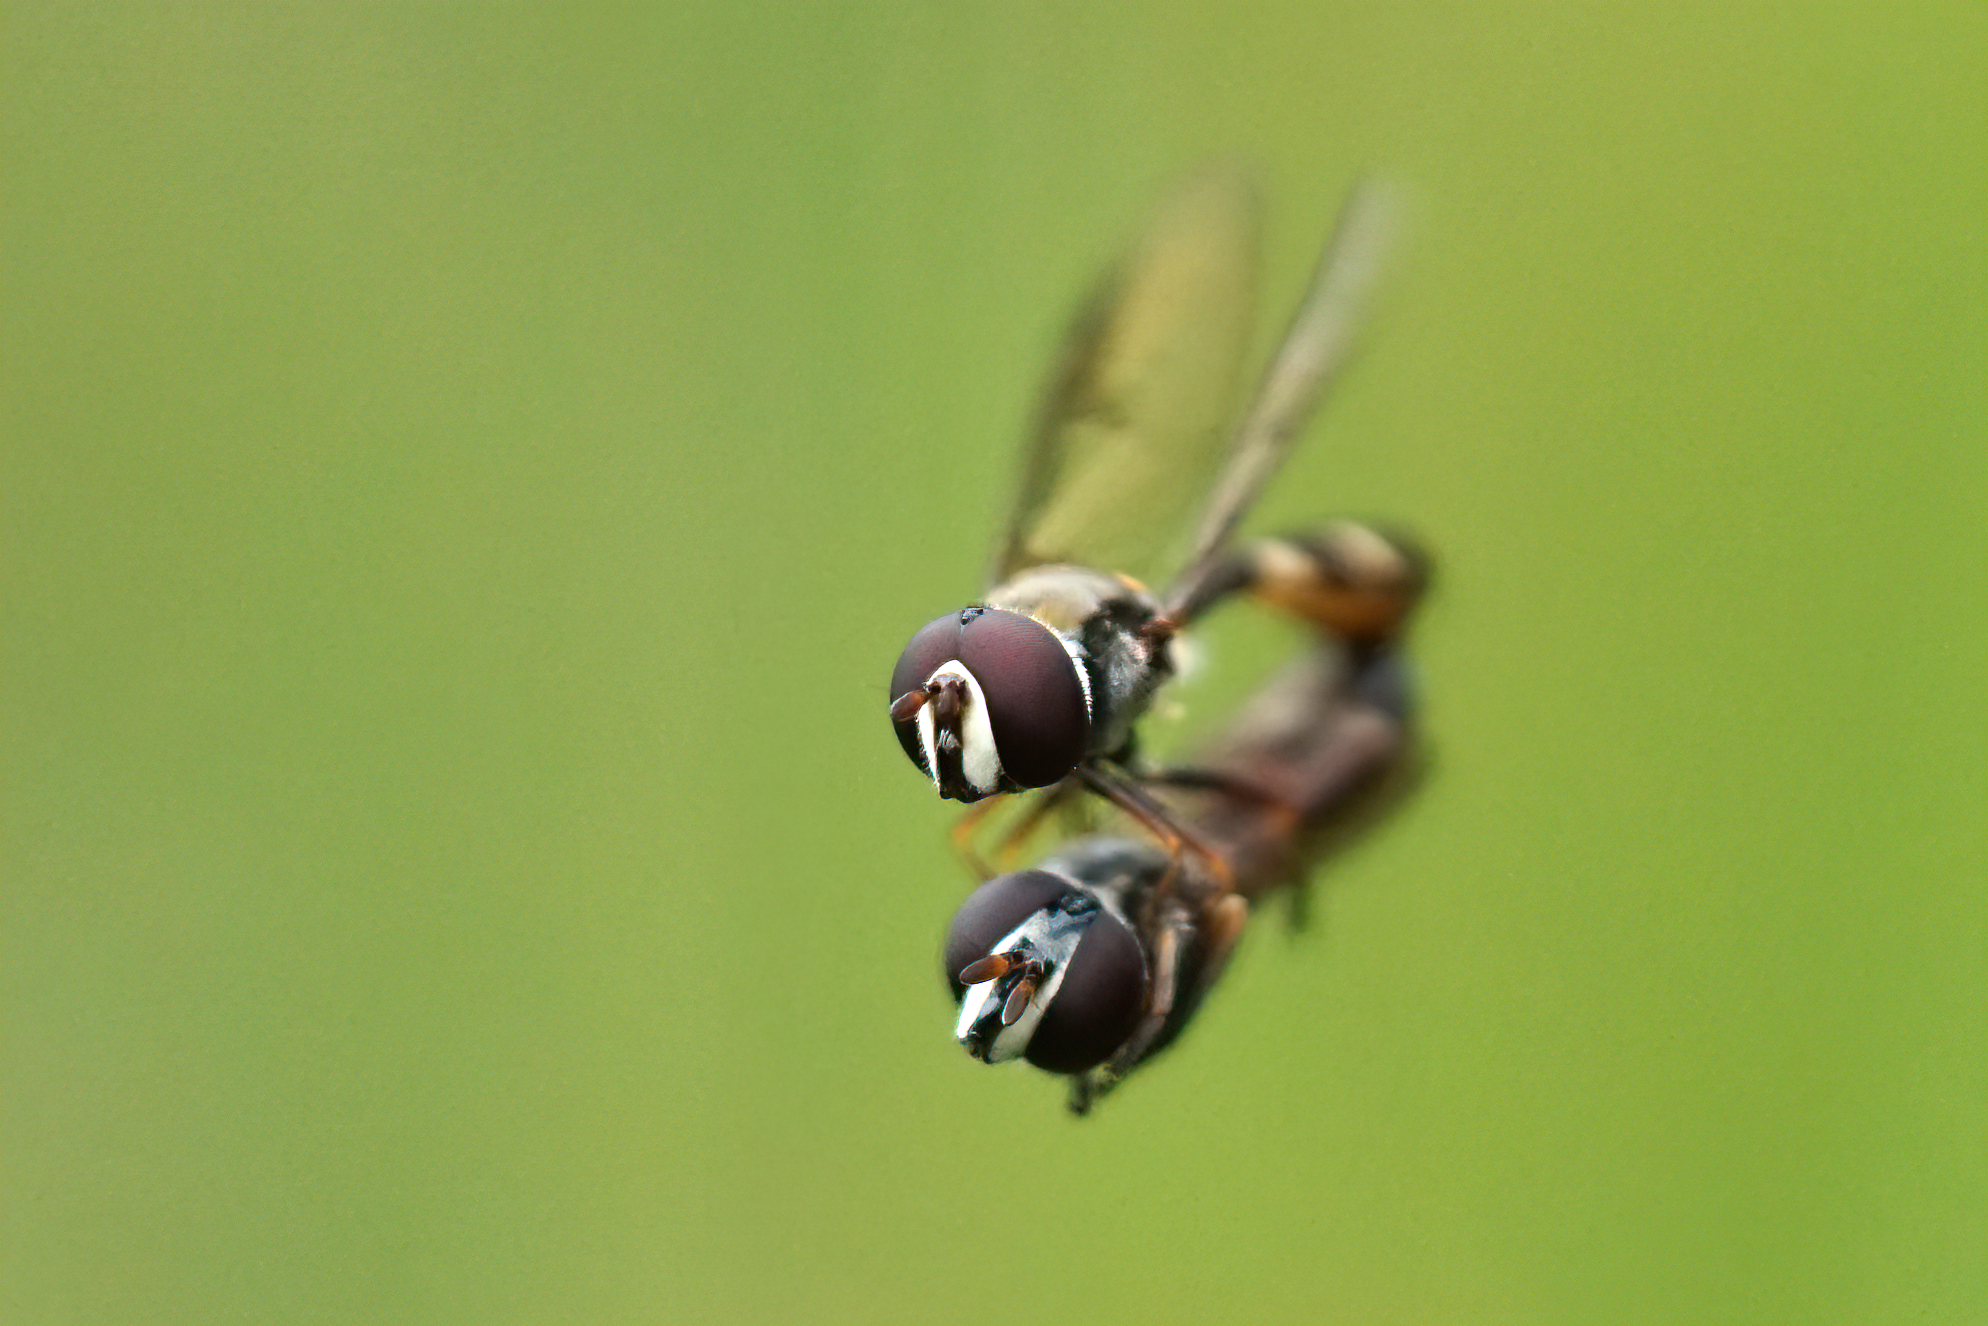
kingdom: Animalia
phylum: Arthropoda
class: Insecta
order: Diptera
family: Syrphidae
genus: Dioprosopa
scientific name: Dioprosopa clavatus
